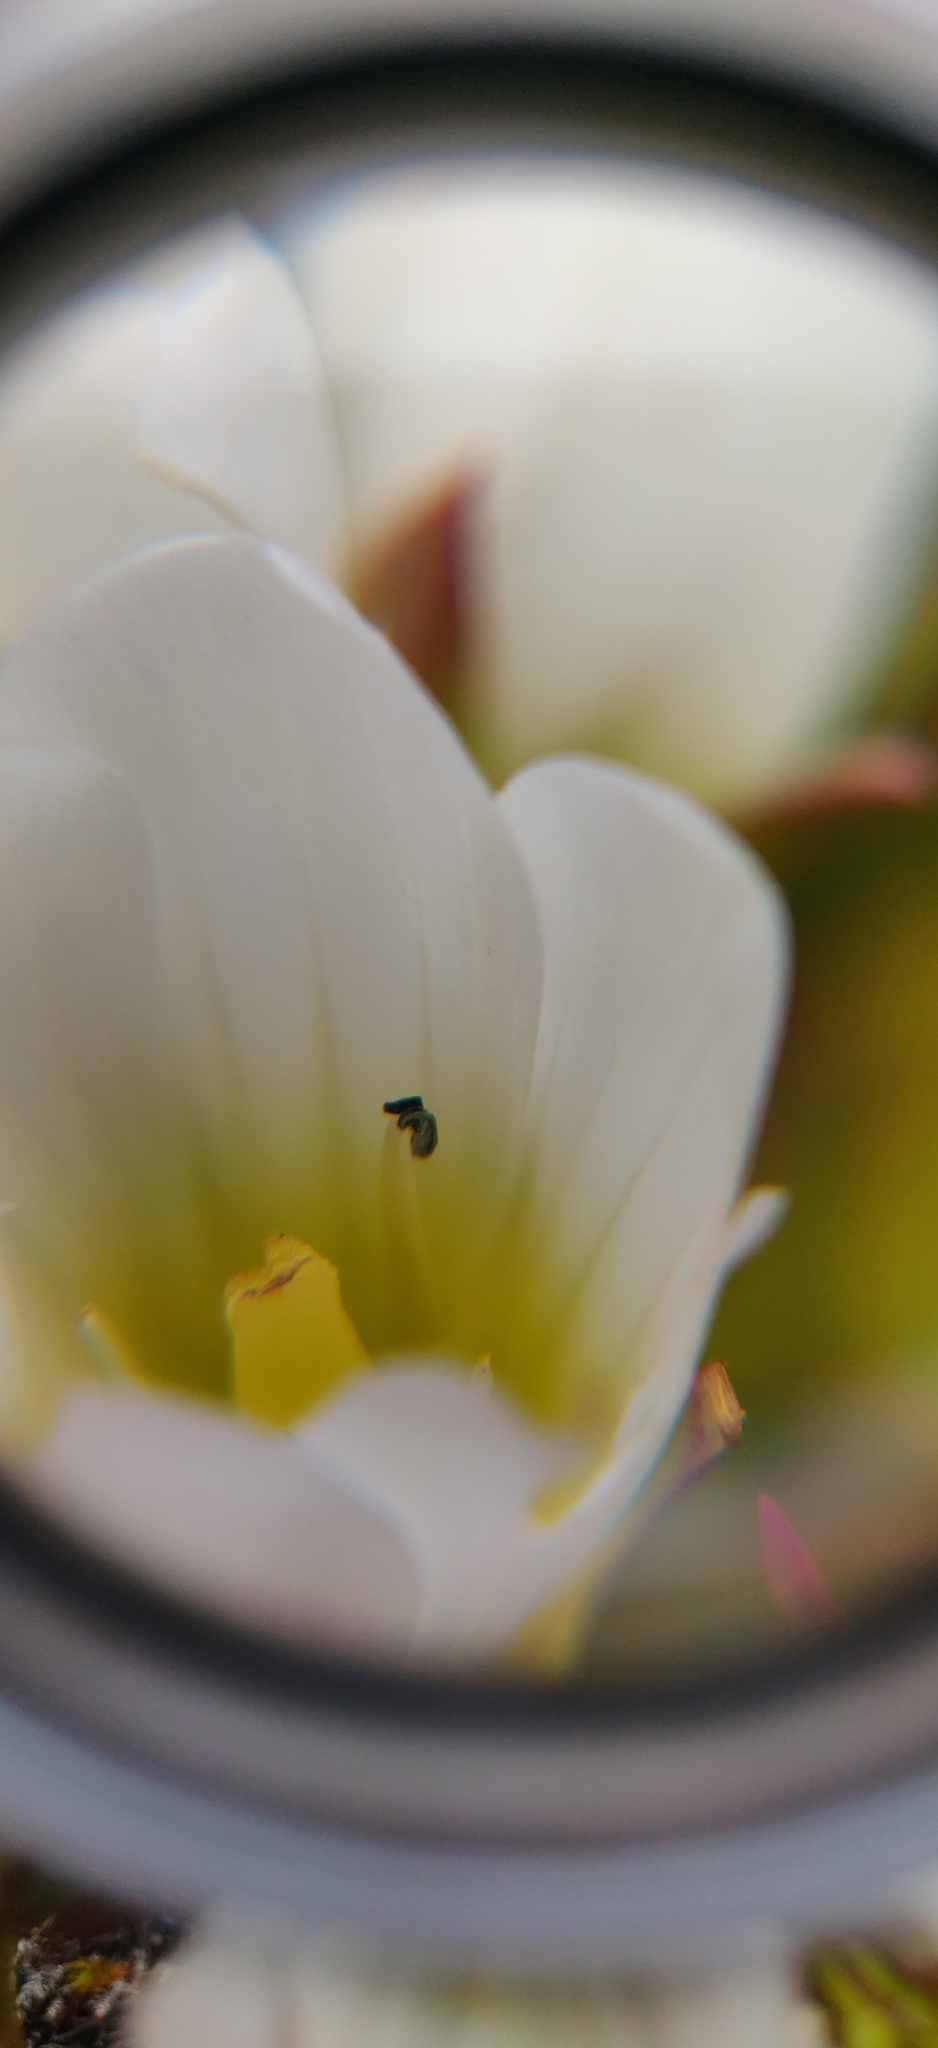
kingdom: Plantae
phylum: Tracheophyta
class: Magnoliopsida
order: Gentianales
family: Gentianaceae
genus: Gentianella
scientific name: Gentianella corymbifera
